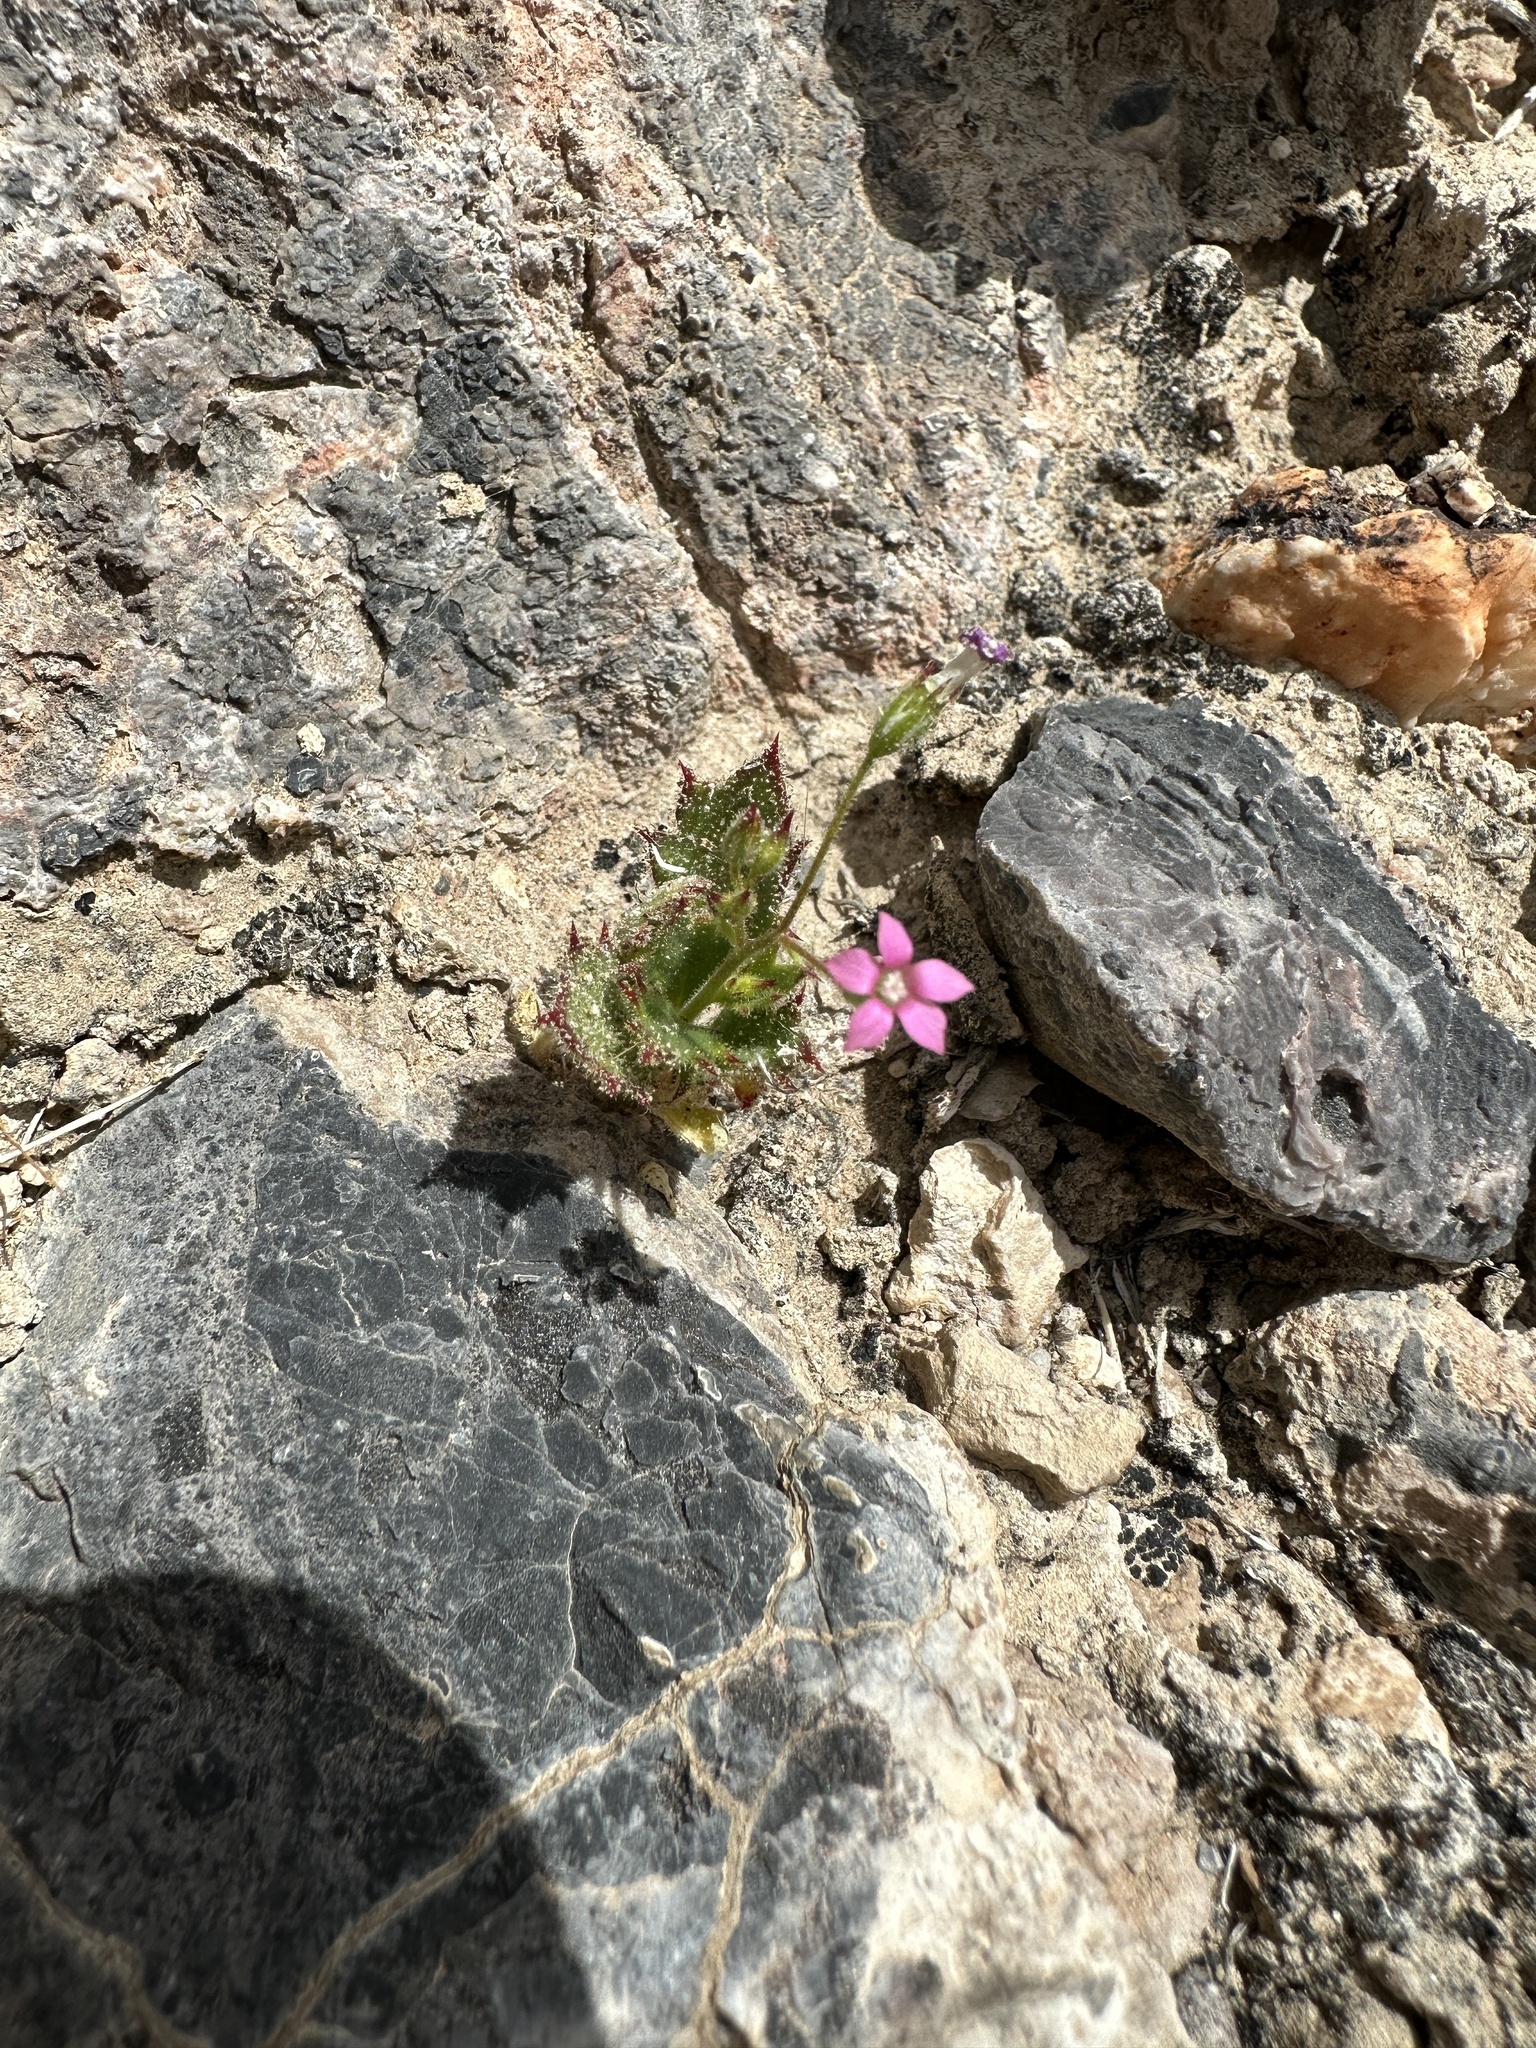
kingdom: Plantae
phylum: Tracheophyta
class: Magnoliopsida
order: Ericales
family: Polemoniaceae
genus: Aliciella
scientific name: Aliciella latifolia
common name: Broad-leaf gilia
